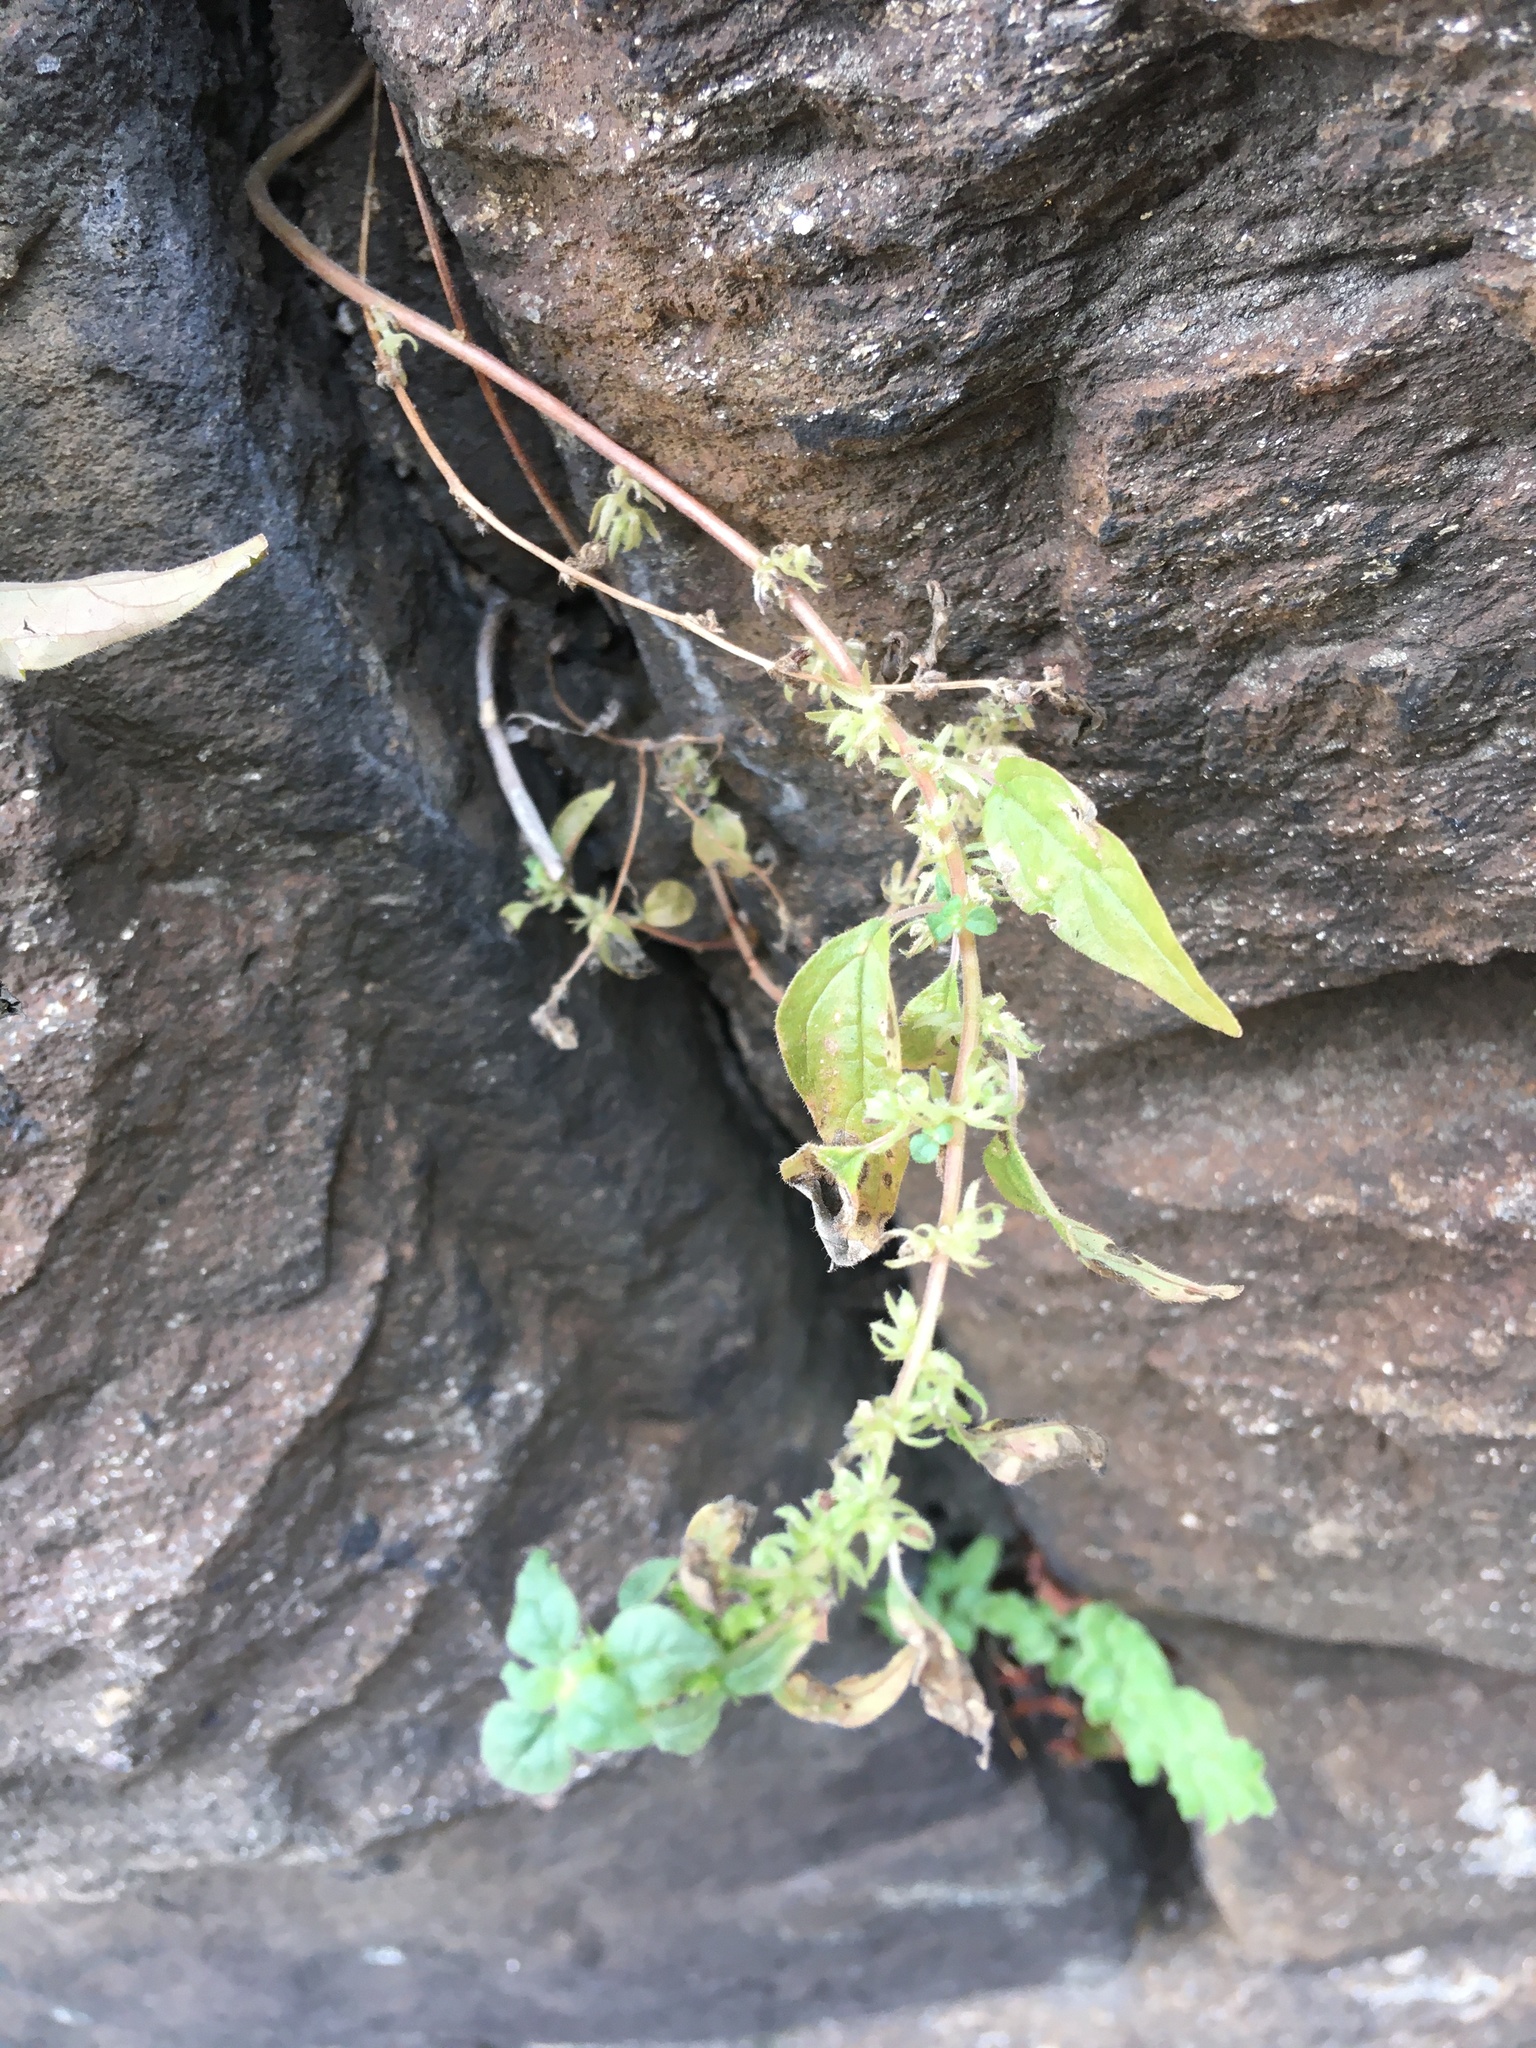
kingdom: Plantae
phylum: Tracheophyta
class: Magnoliopsida
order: Rosales
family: Urticaceae
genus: Parietaria
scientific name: Parietaria pensylvanica
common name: Pennsylvania pellitory
